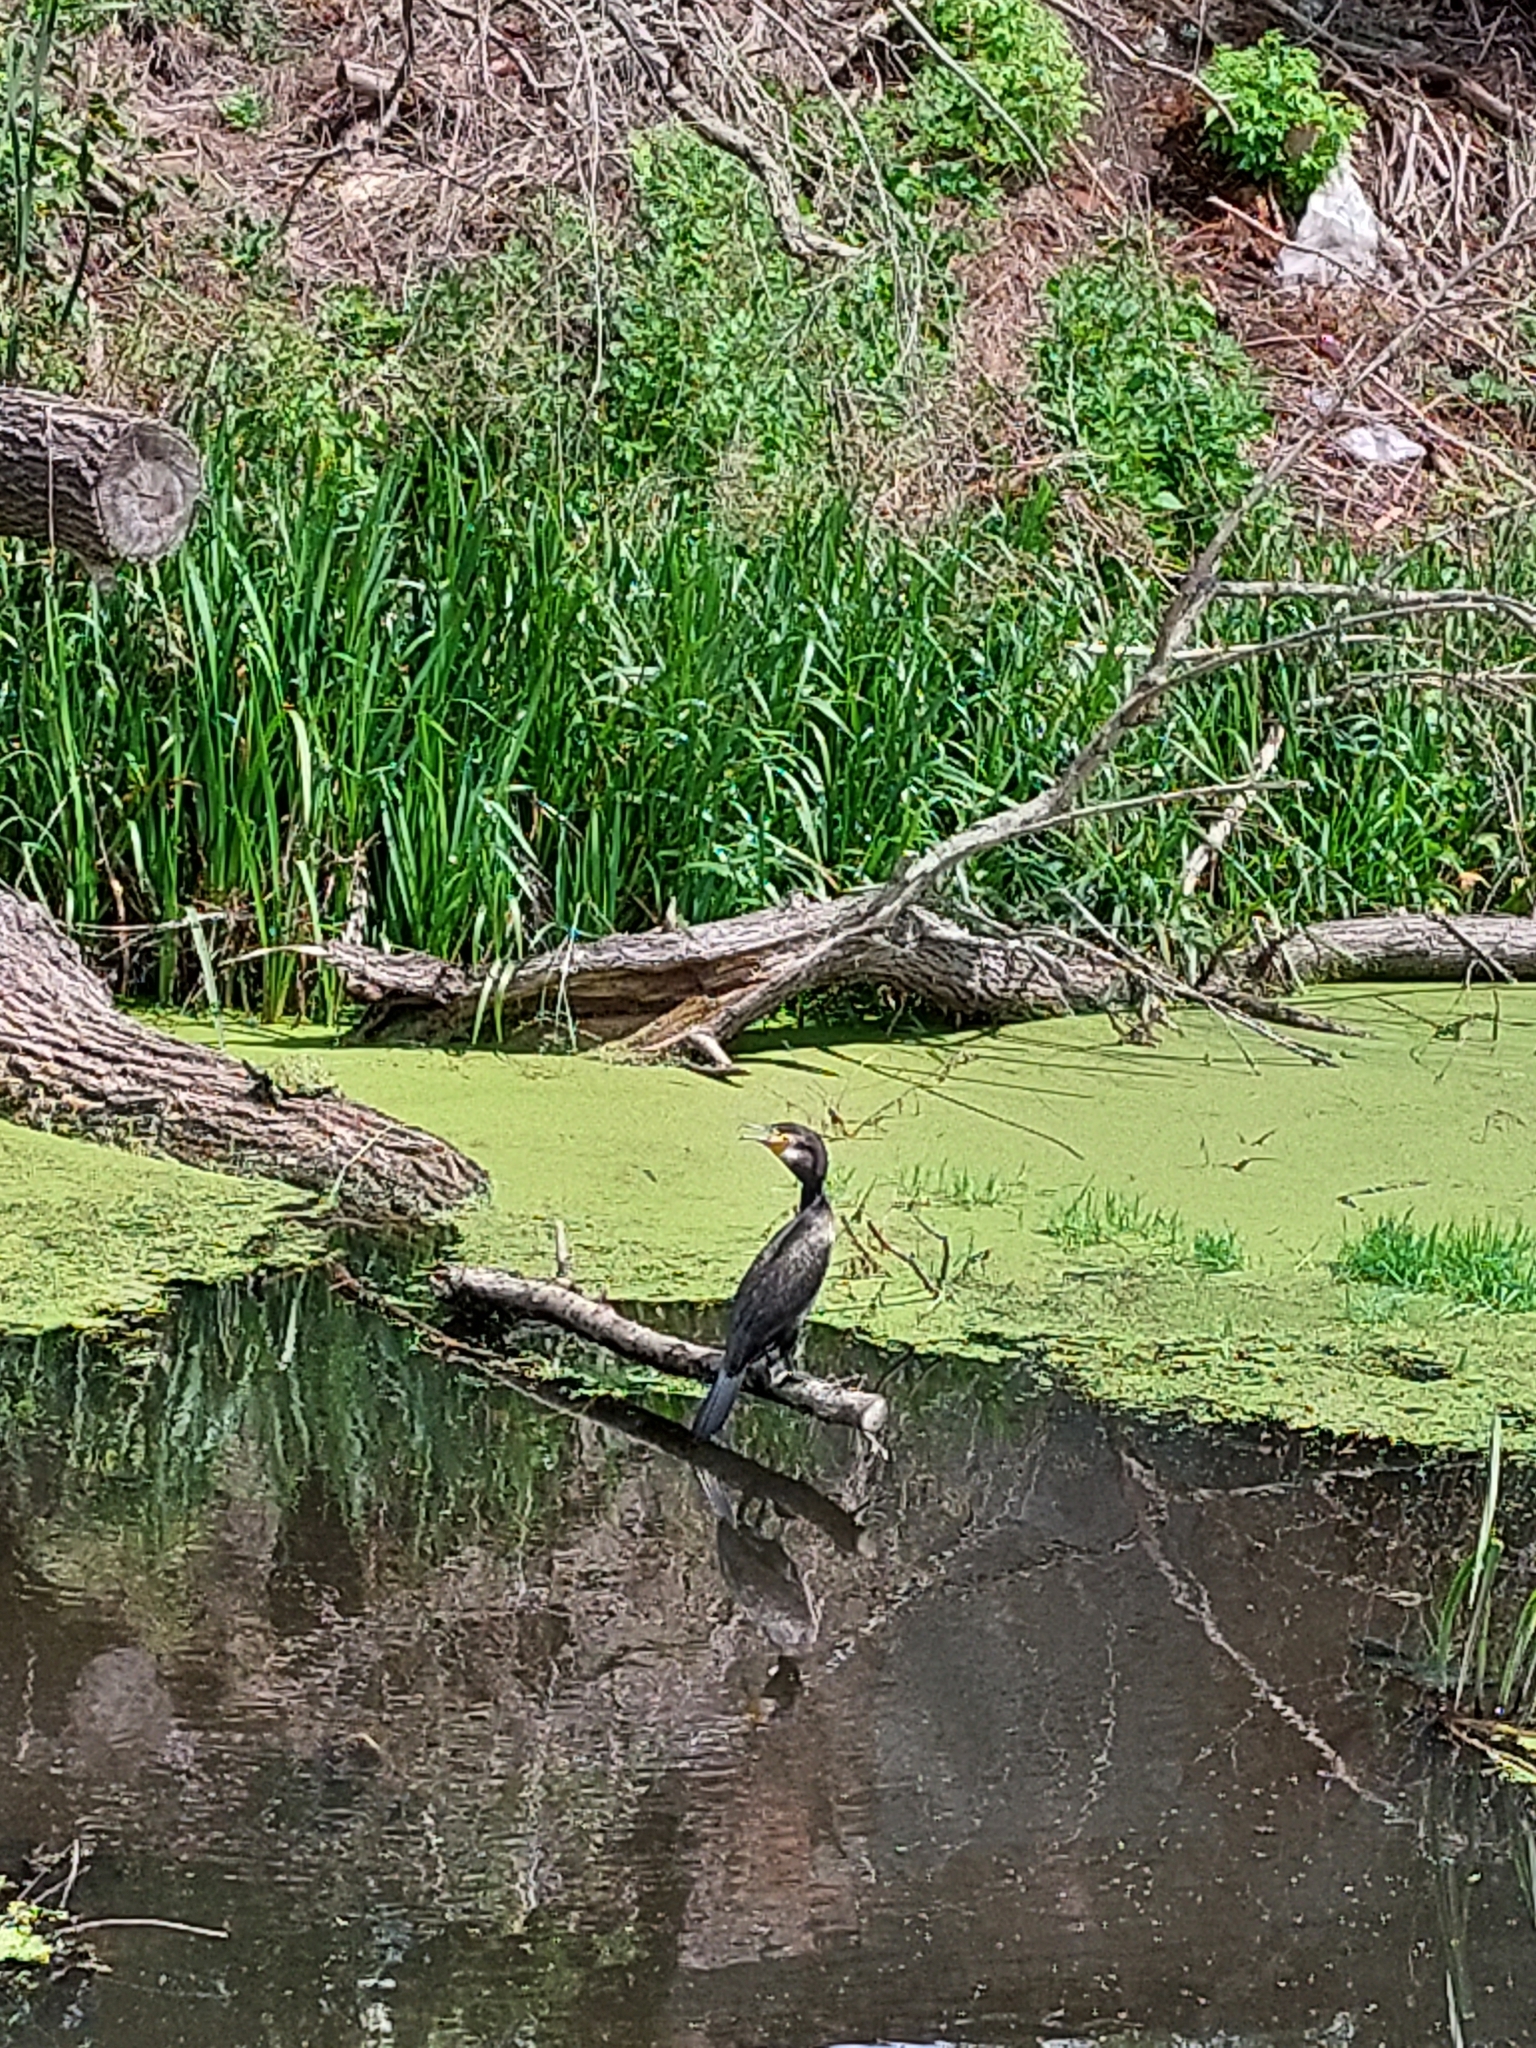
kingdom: Animalia
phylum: Chordata
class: Aves
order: Suliformes
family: Phalacrocoracidae
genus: Phalacrocorax
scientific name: Phalacrocorax carbo
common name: Great cormorant
